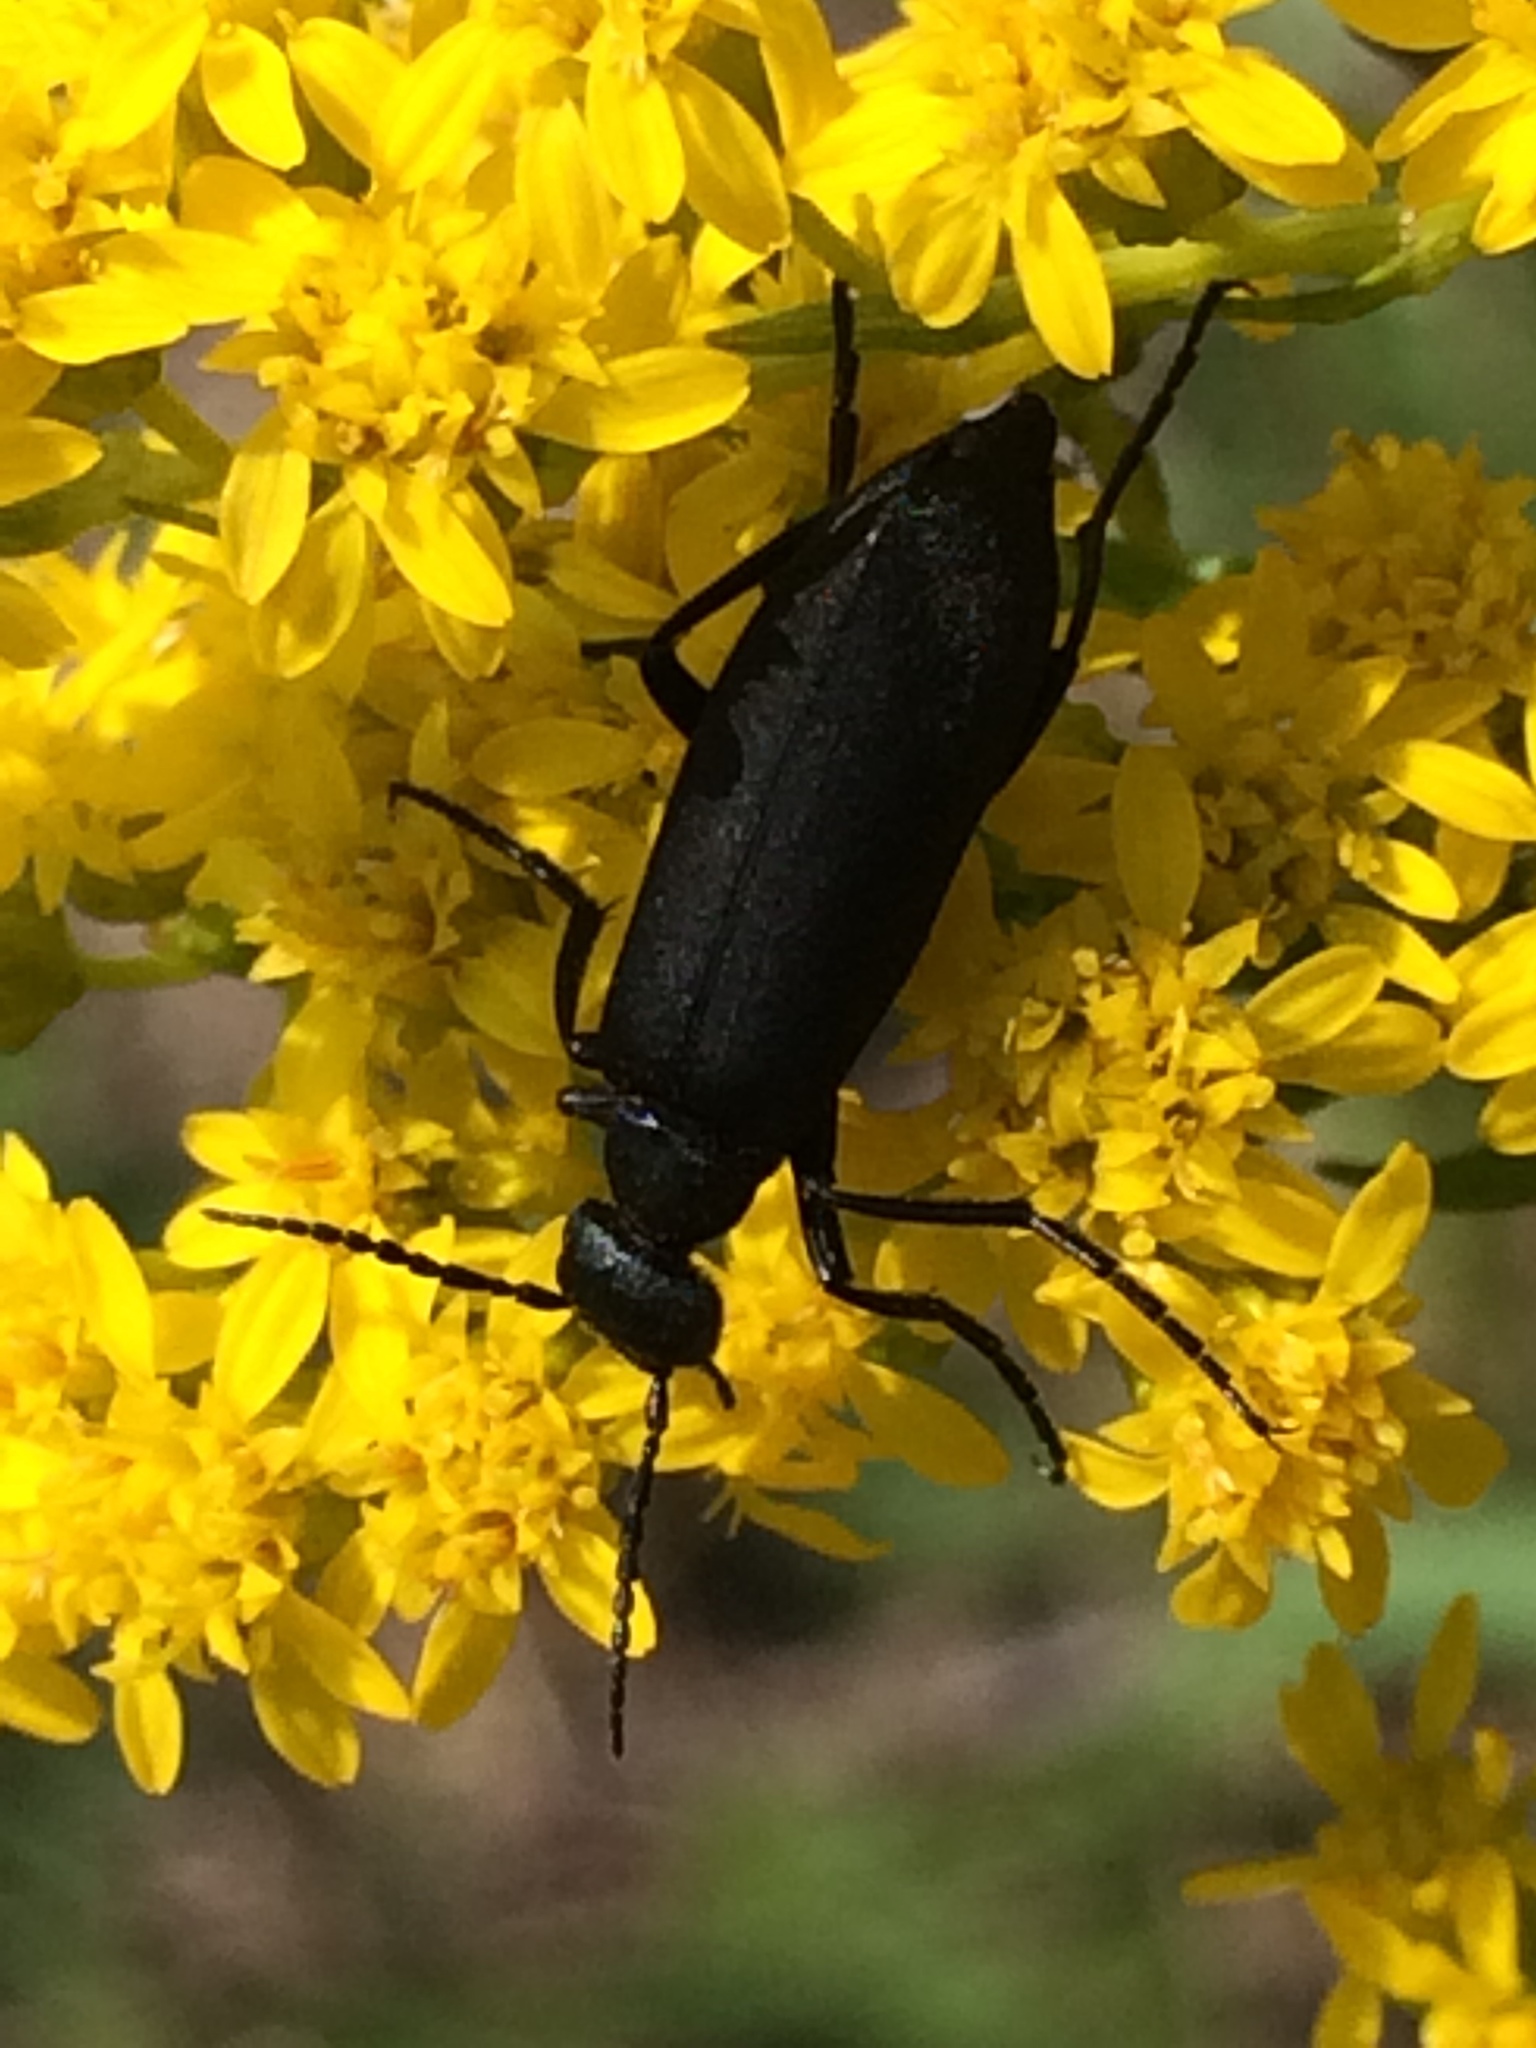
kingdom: Animalia
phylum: Arthropoda
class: Insecta
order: Coleoptera
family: Meloidae
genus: Epicauta
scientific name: Epicauta pensylvanica
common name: Black blister beetle
